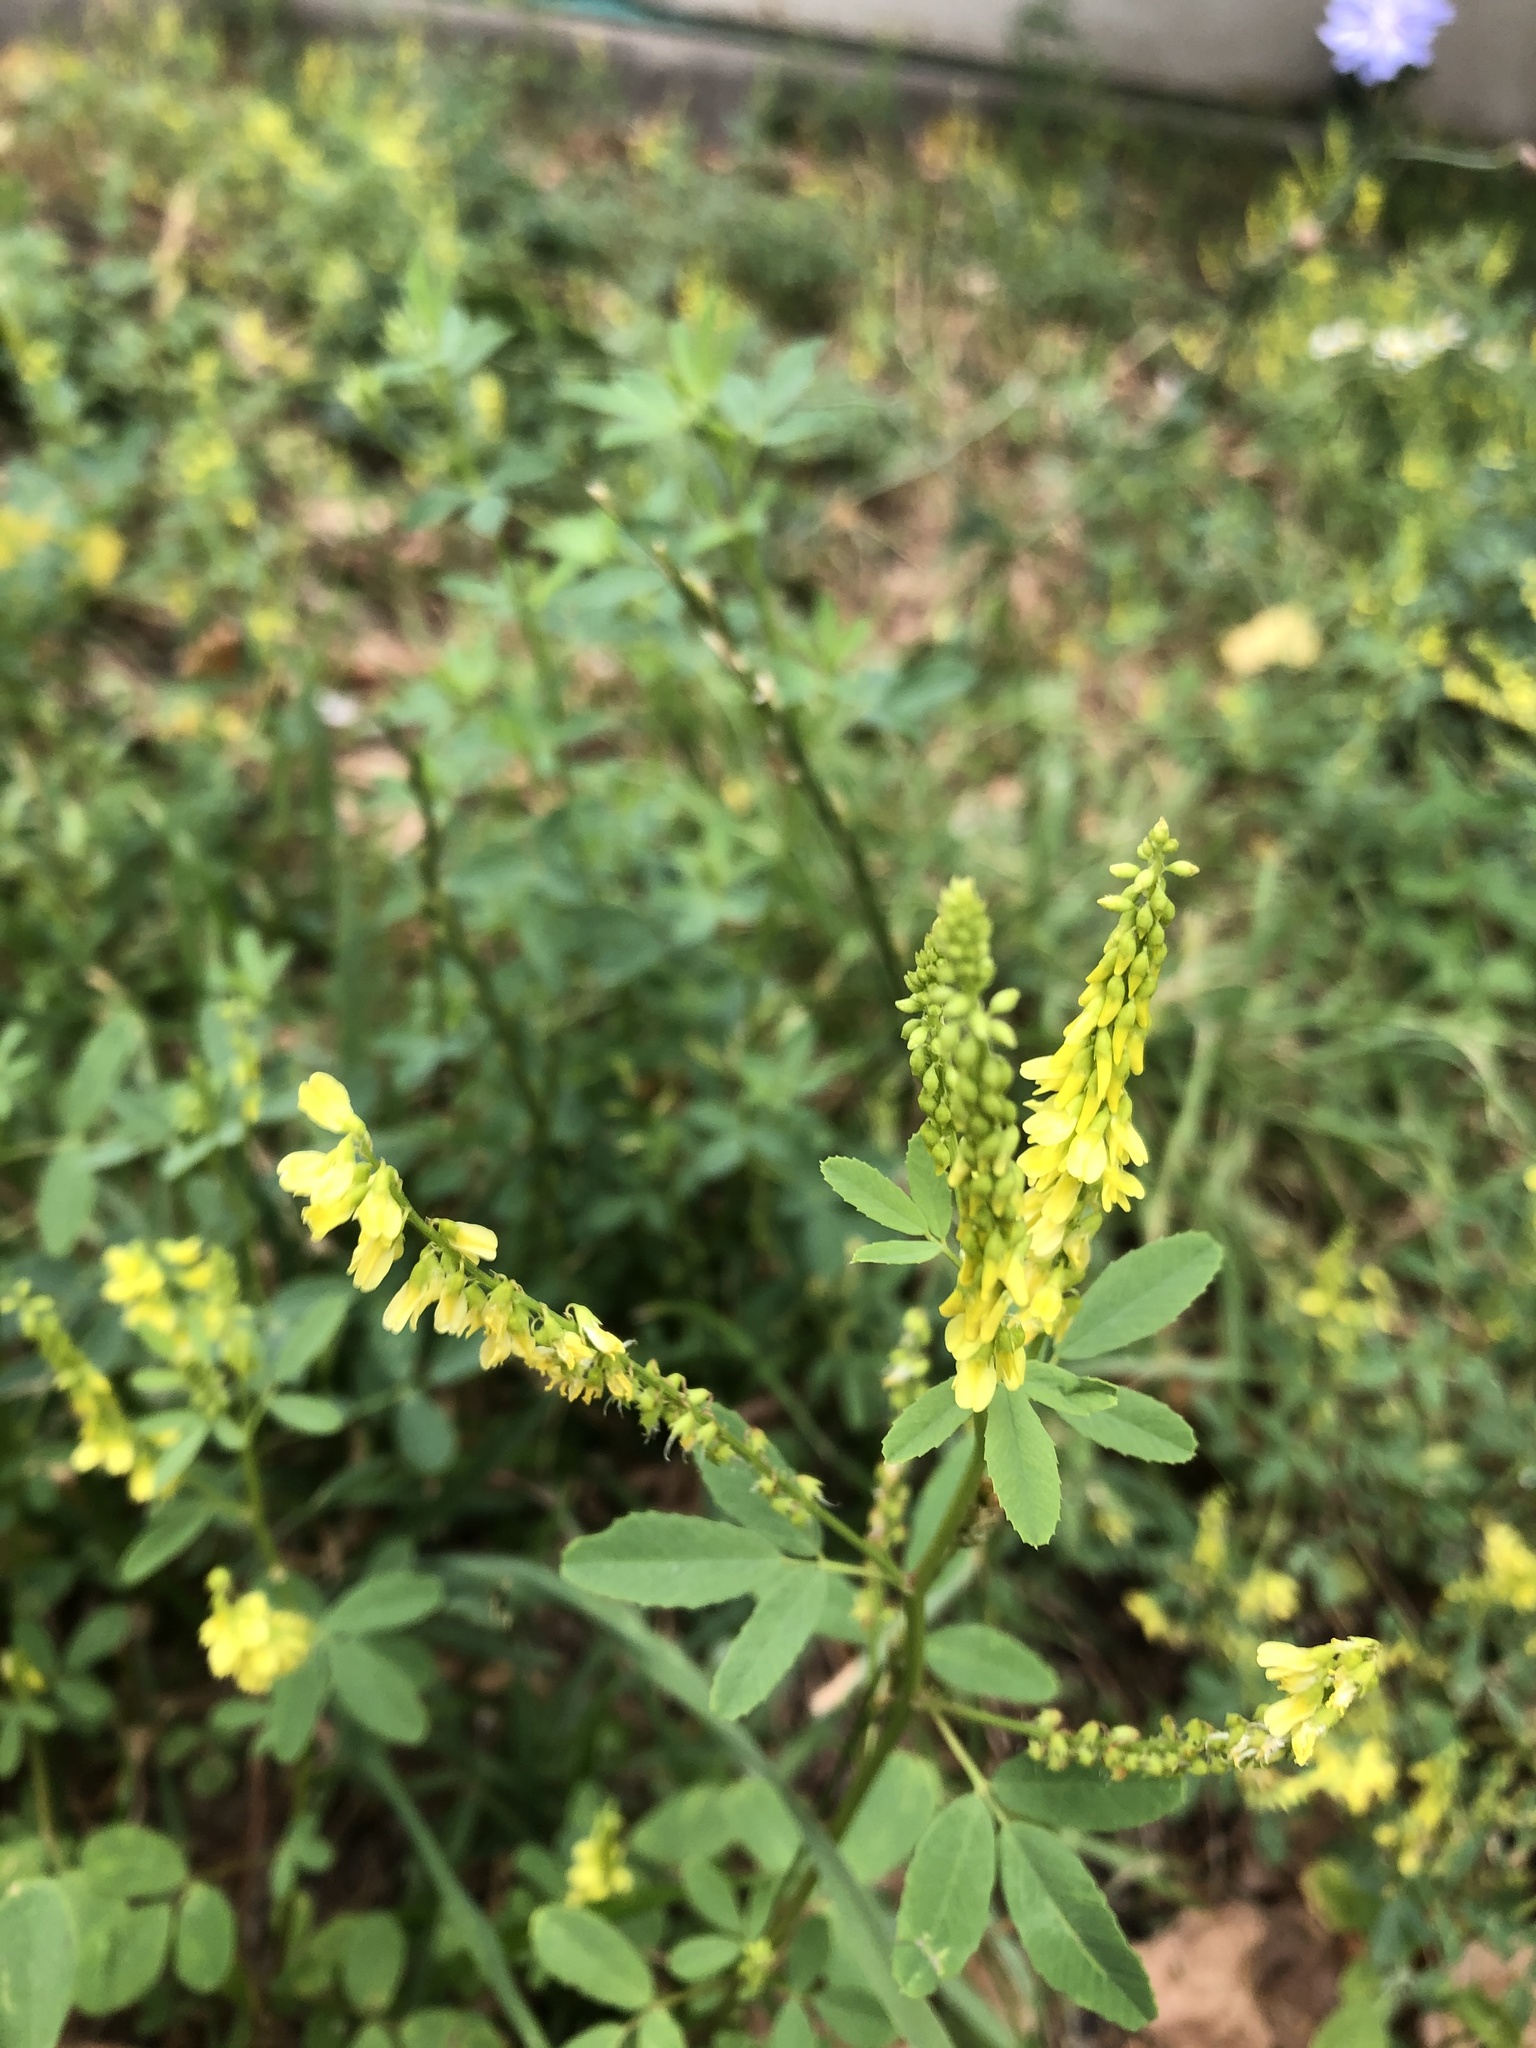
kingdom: Plantae
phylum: Tracheophyta
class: Magnoliopsida
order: Fabales
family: Fabaceae
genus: Melilotus
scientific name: Melilotus officinalis
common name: Sweetclover
